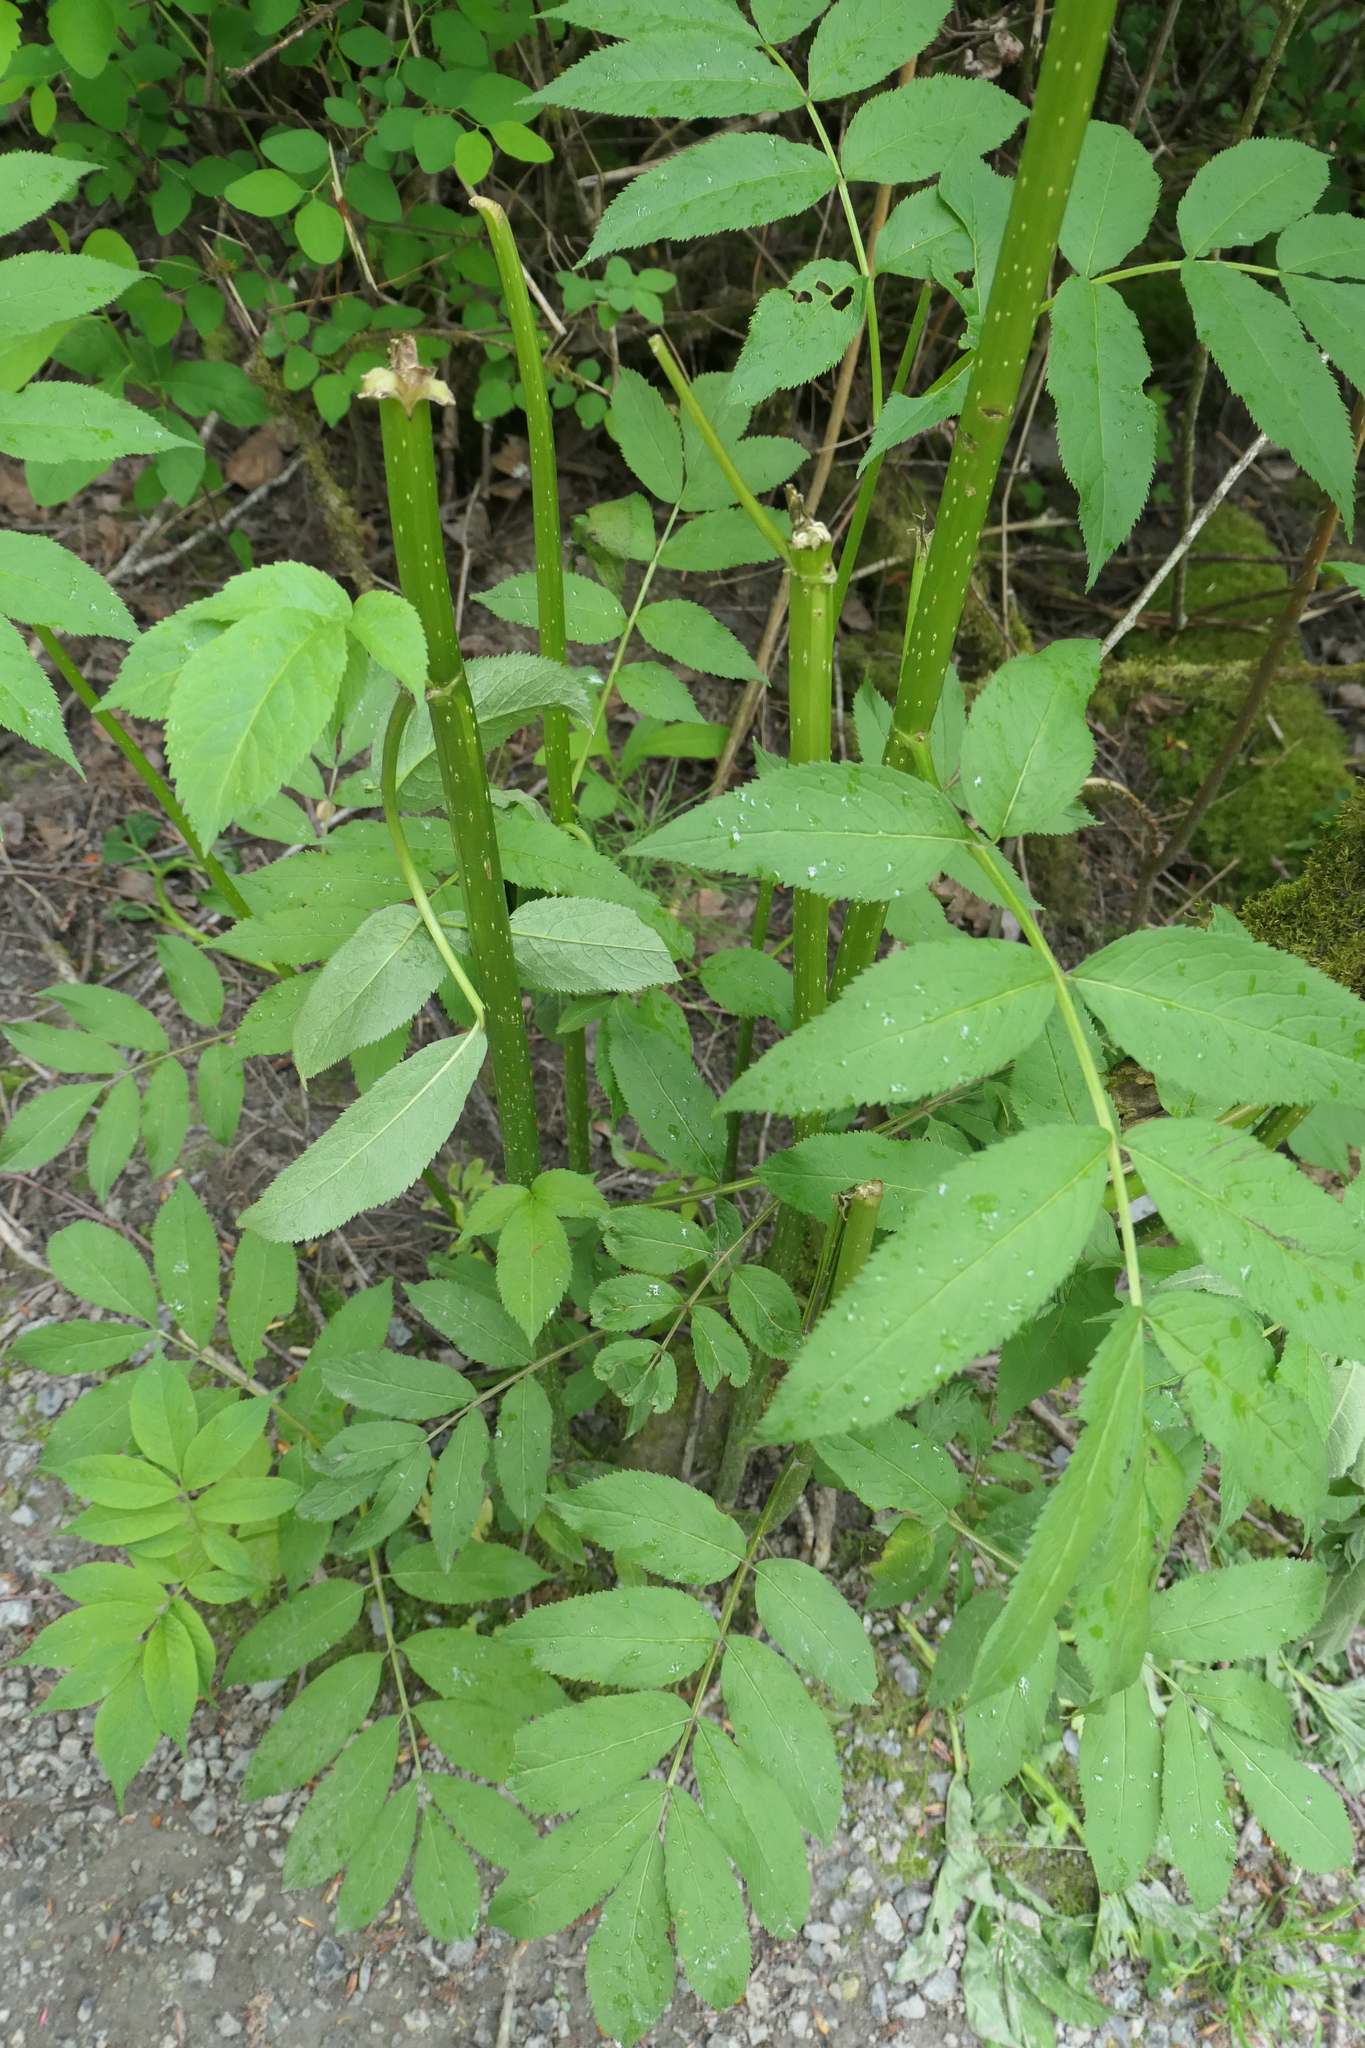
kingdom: Plantae
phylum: Tracheophyta
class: Magnoliopsida
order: Dipsacales
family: Viburnaceae
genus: Sambucus
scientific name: Sambucus racemosa
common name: Red-berried elder
